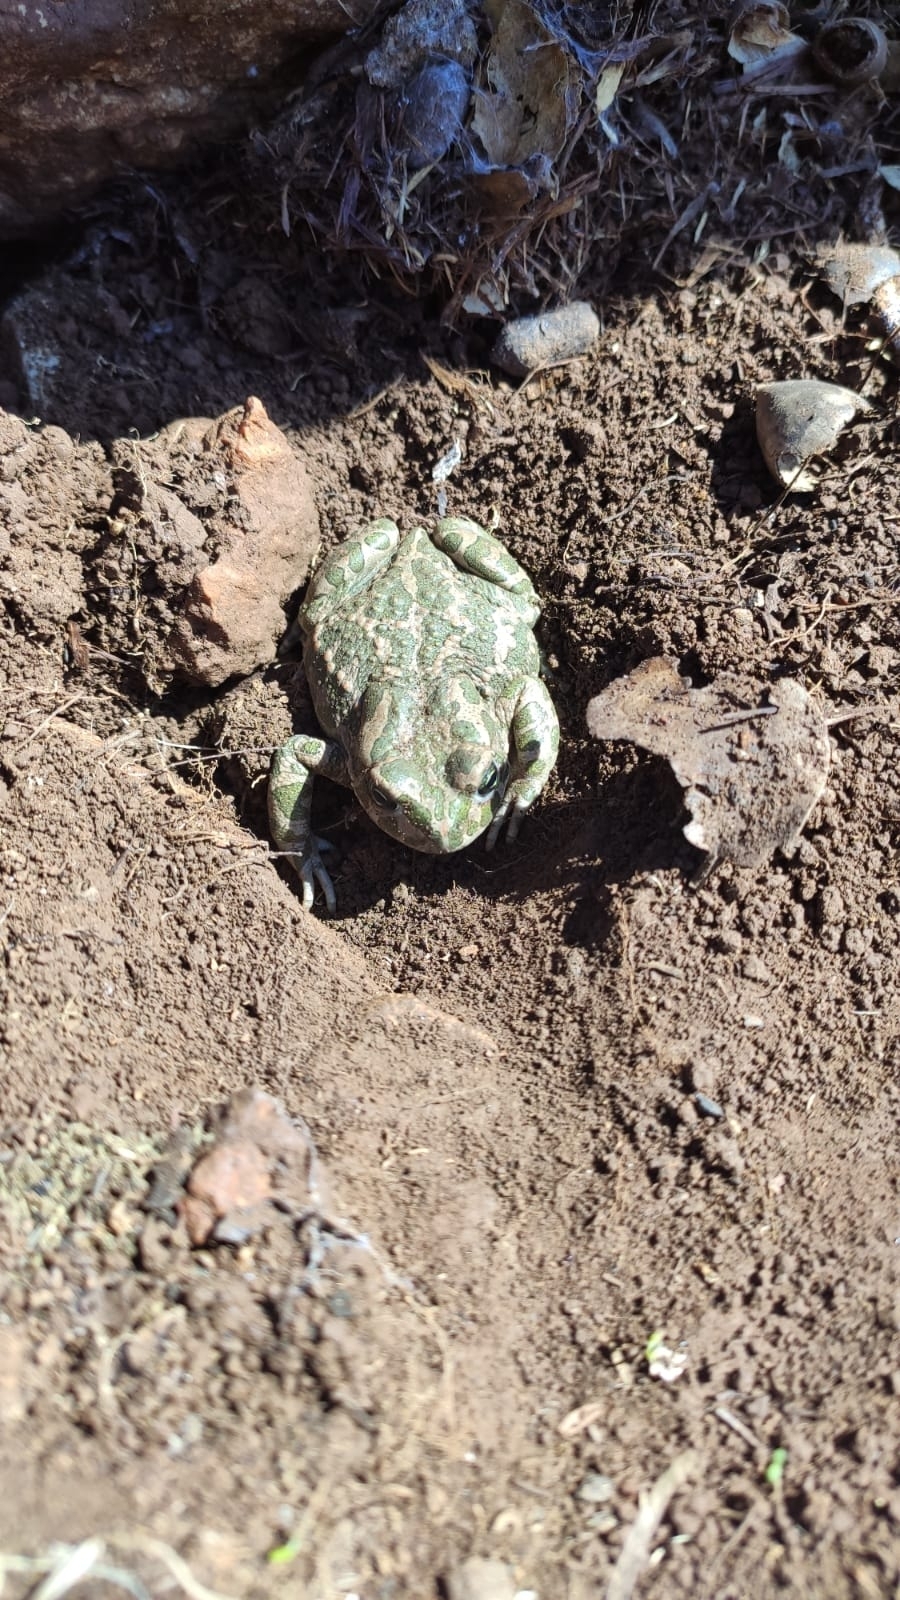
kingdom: Animalia
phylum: Chordata
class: Amphibia
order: Anura
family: Bufonidae
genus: Bufotes
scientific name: Bufotes viridis
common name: European green toad
